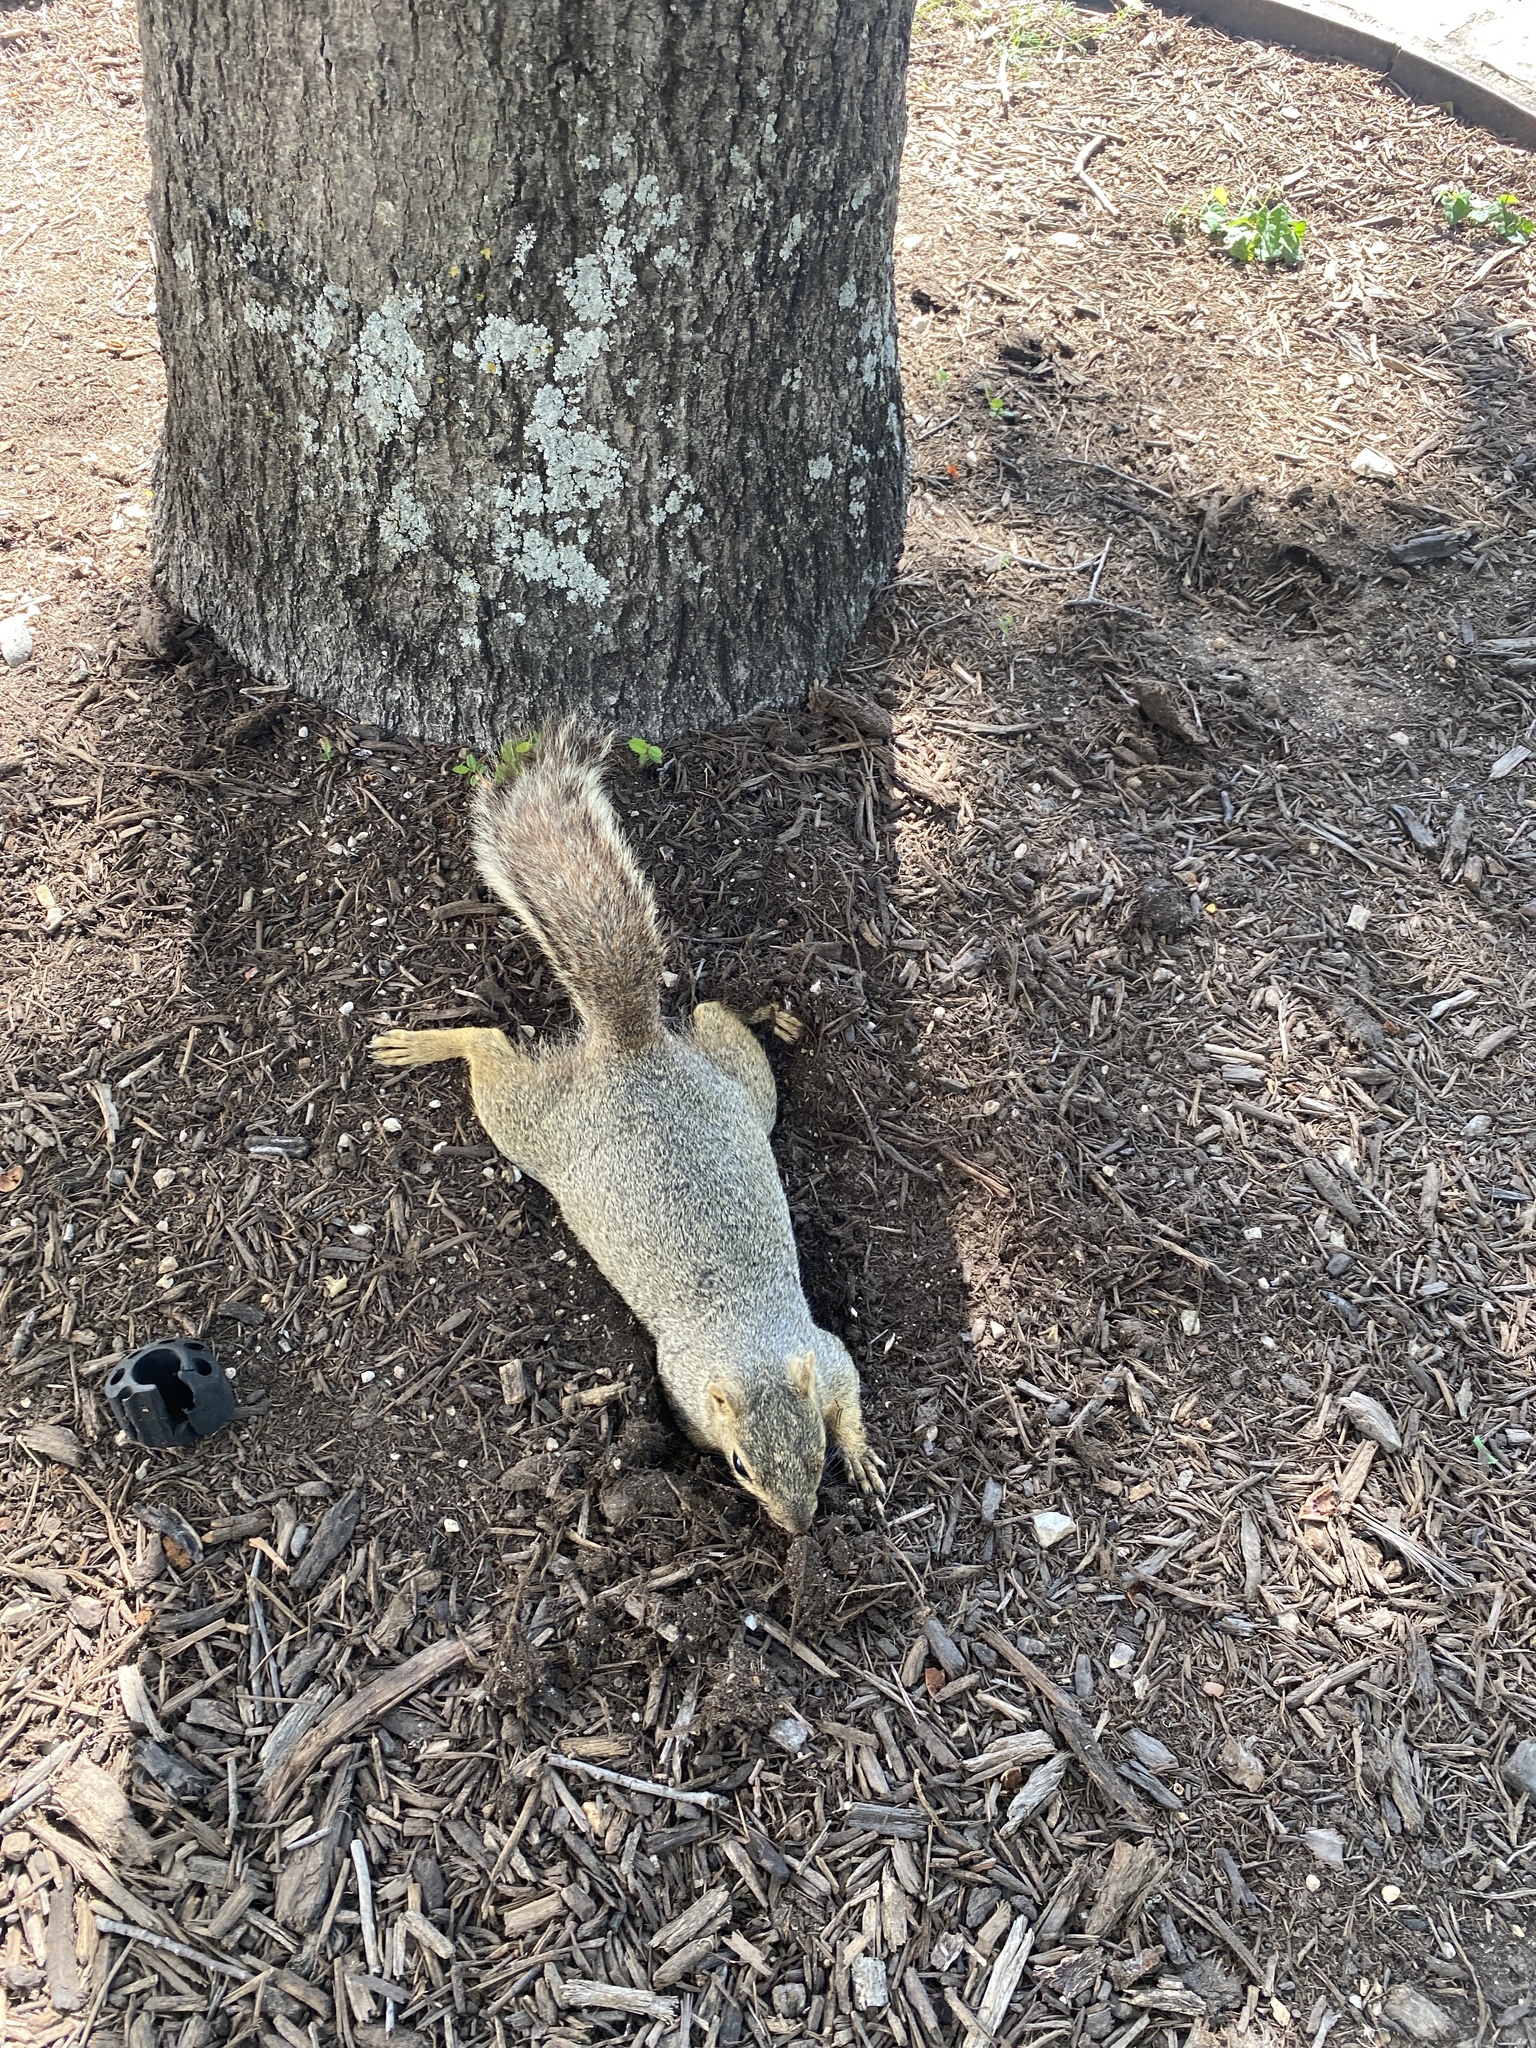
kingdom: Animalia
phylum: Chordata
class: Mammalia
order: Rodentia
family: Sciuridae
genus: Sciurus
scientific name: Sciurus niger
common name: Fox squirrel
